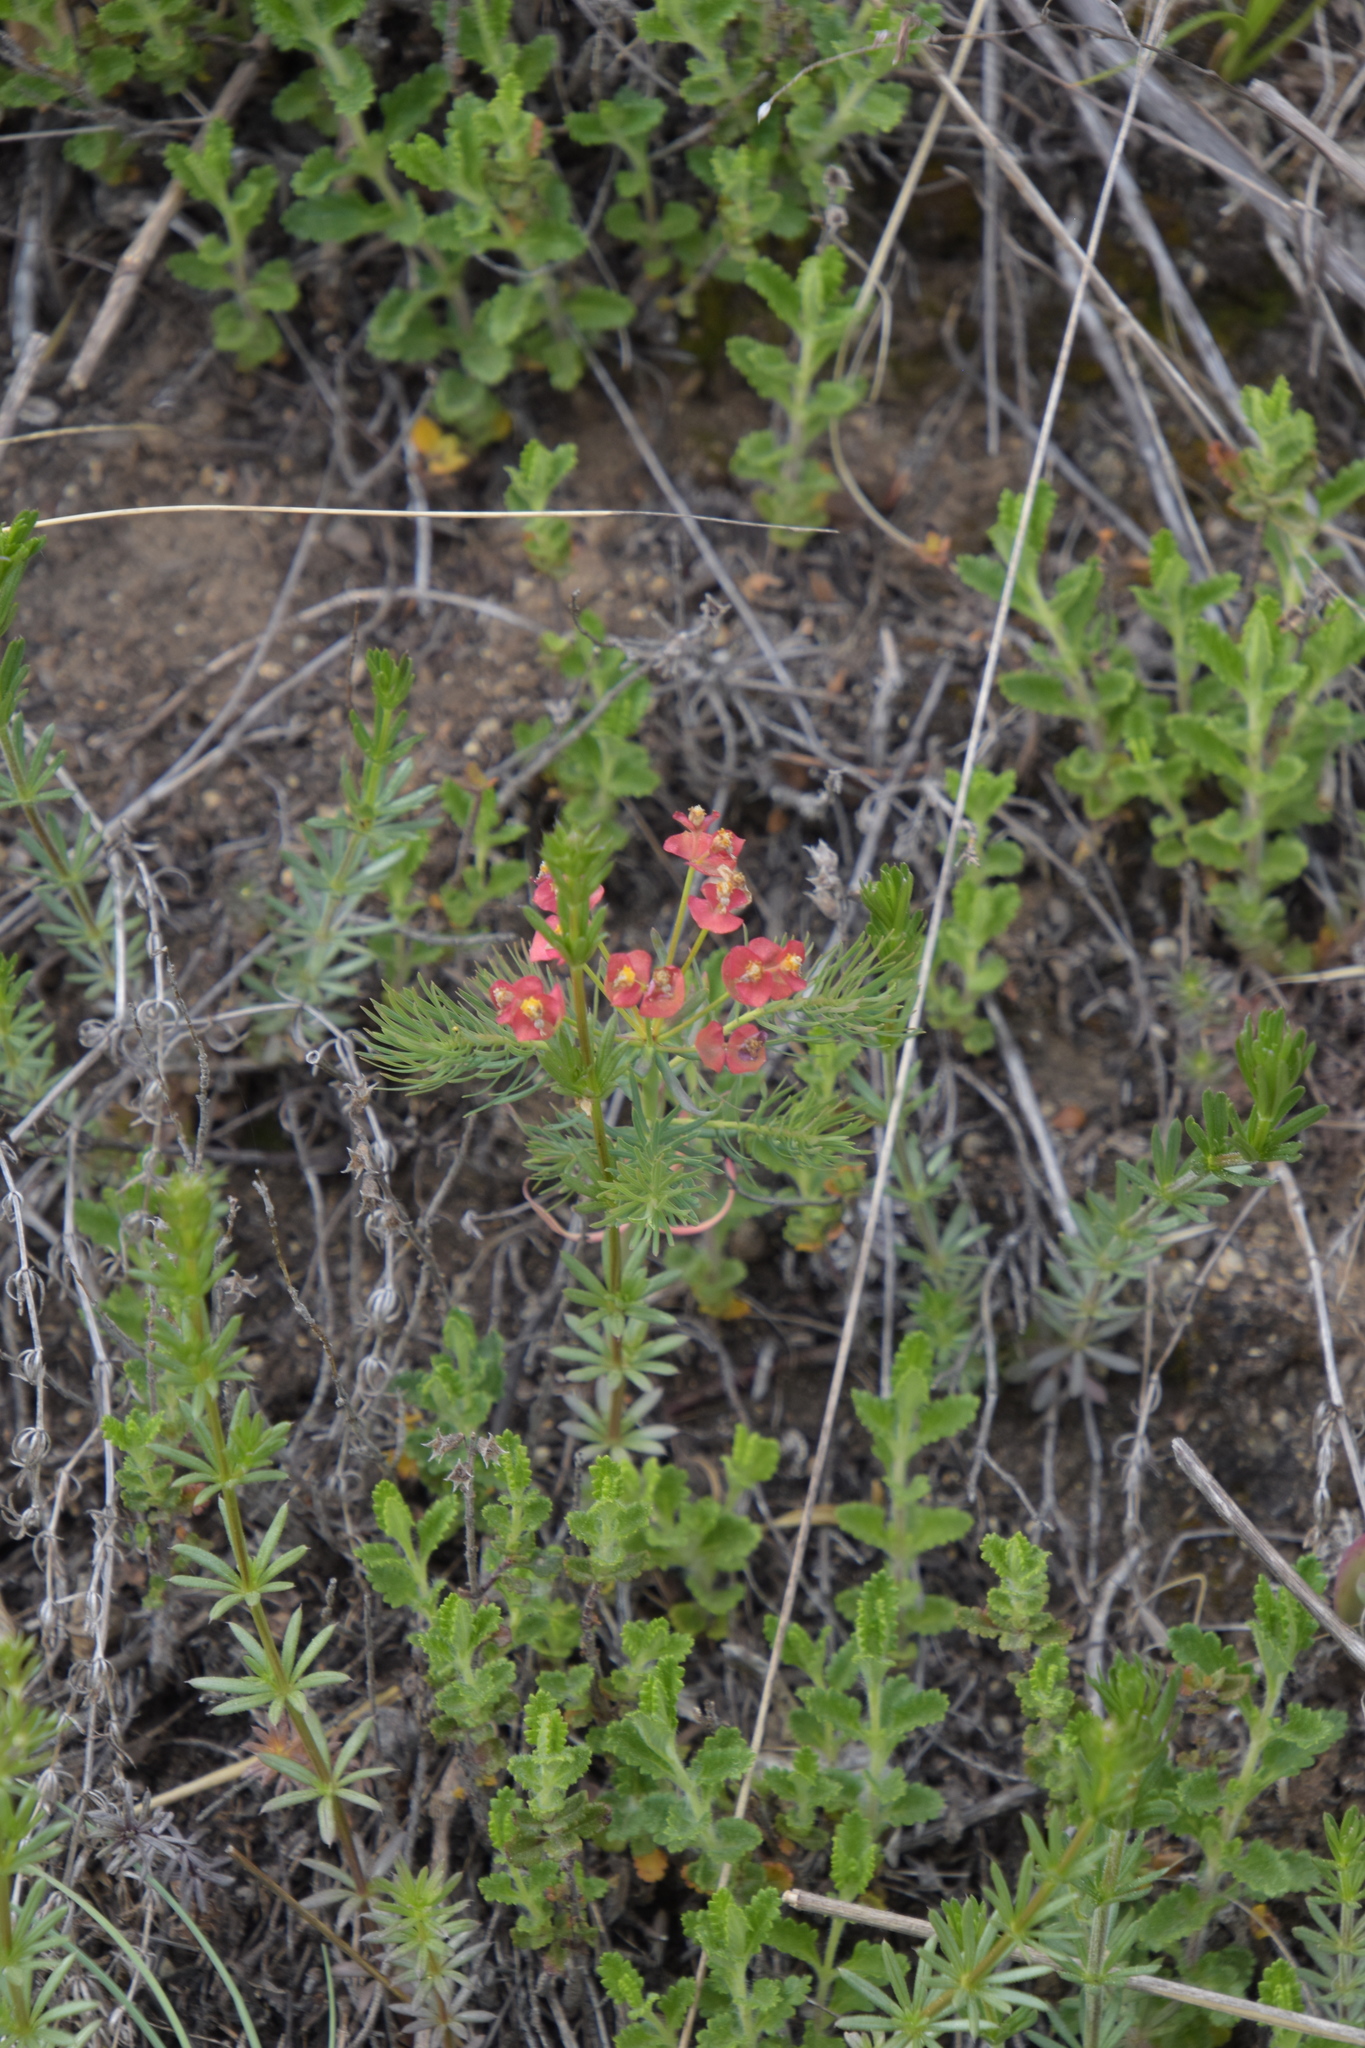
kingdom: Plantae
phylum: Tracheophyta
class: Magnoliopsida
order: Malpighiales
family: Euphorbiaceae
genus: Euphorbia
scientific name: Euphorbia cyparissias
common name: Cypress spurge
